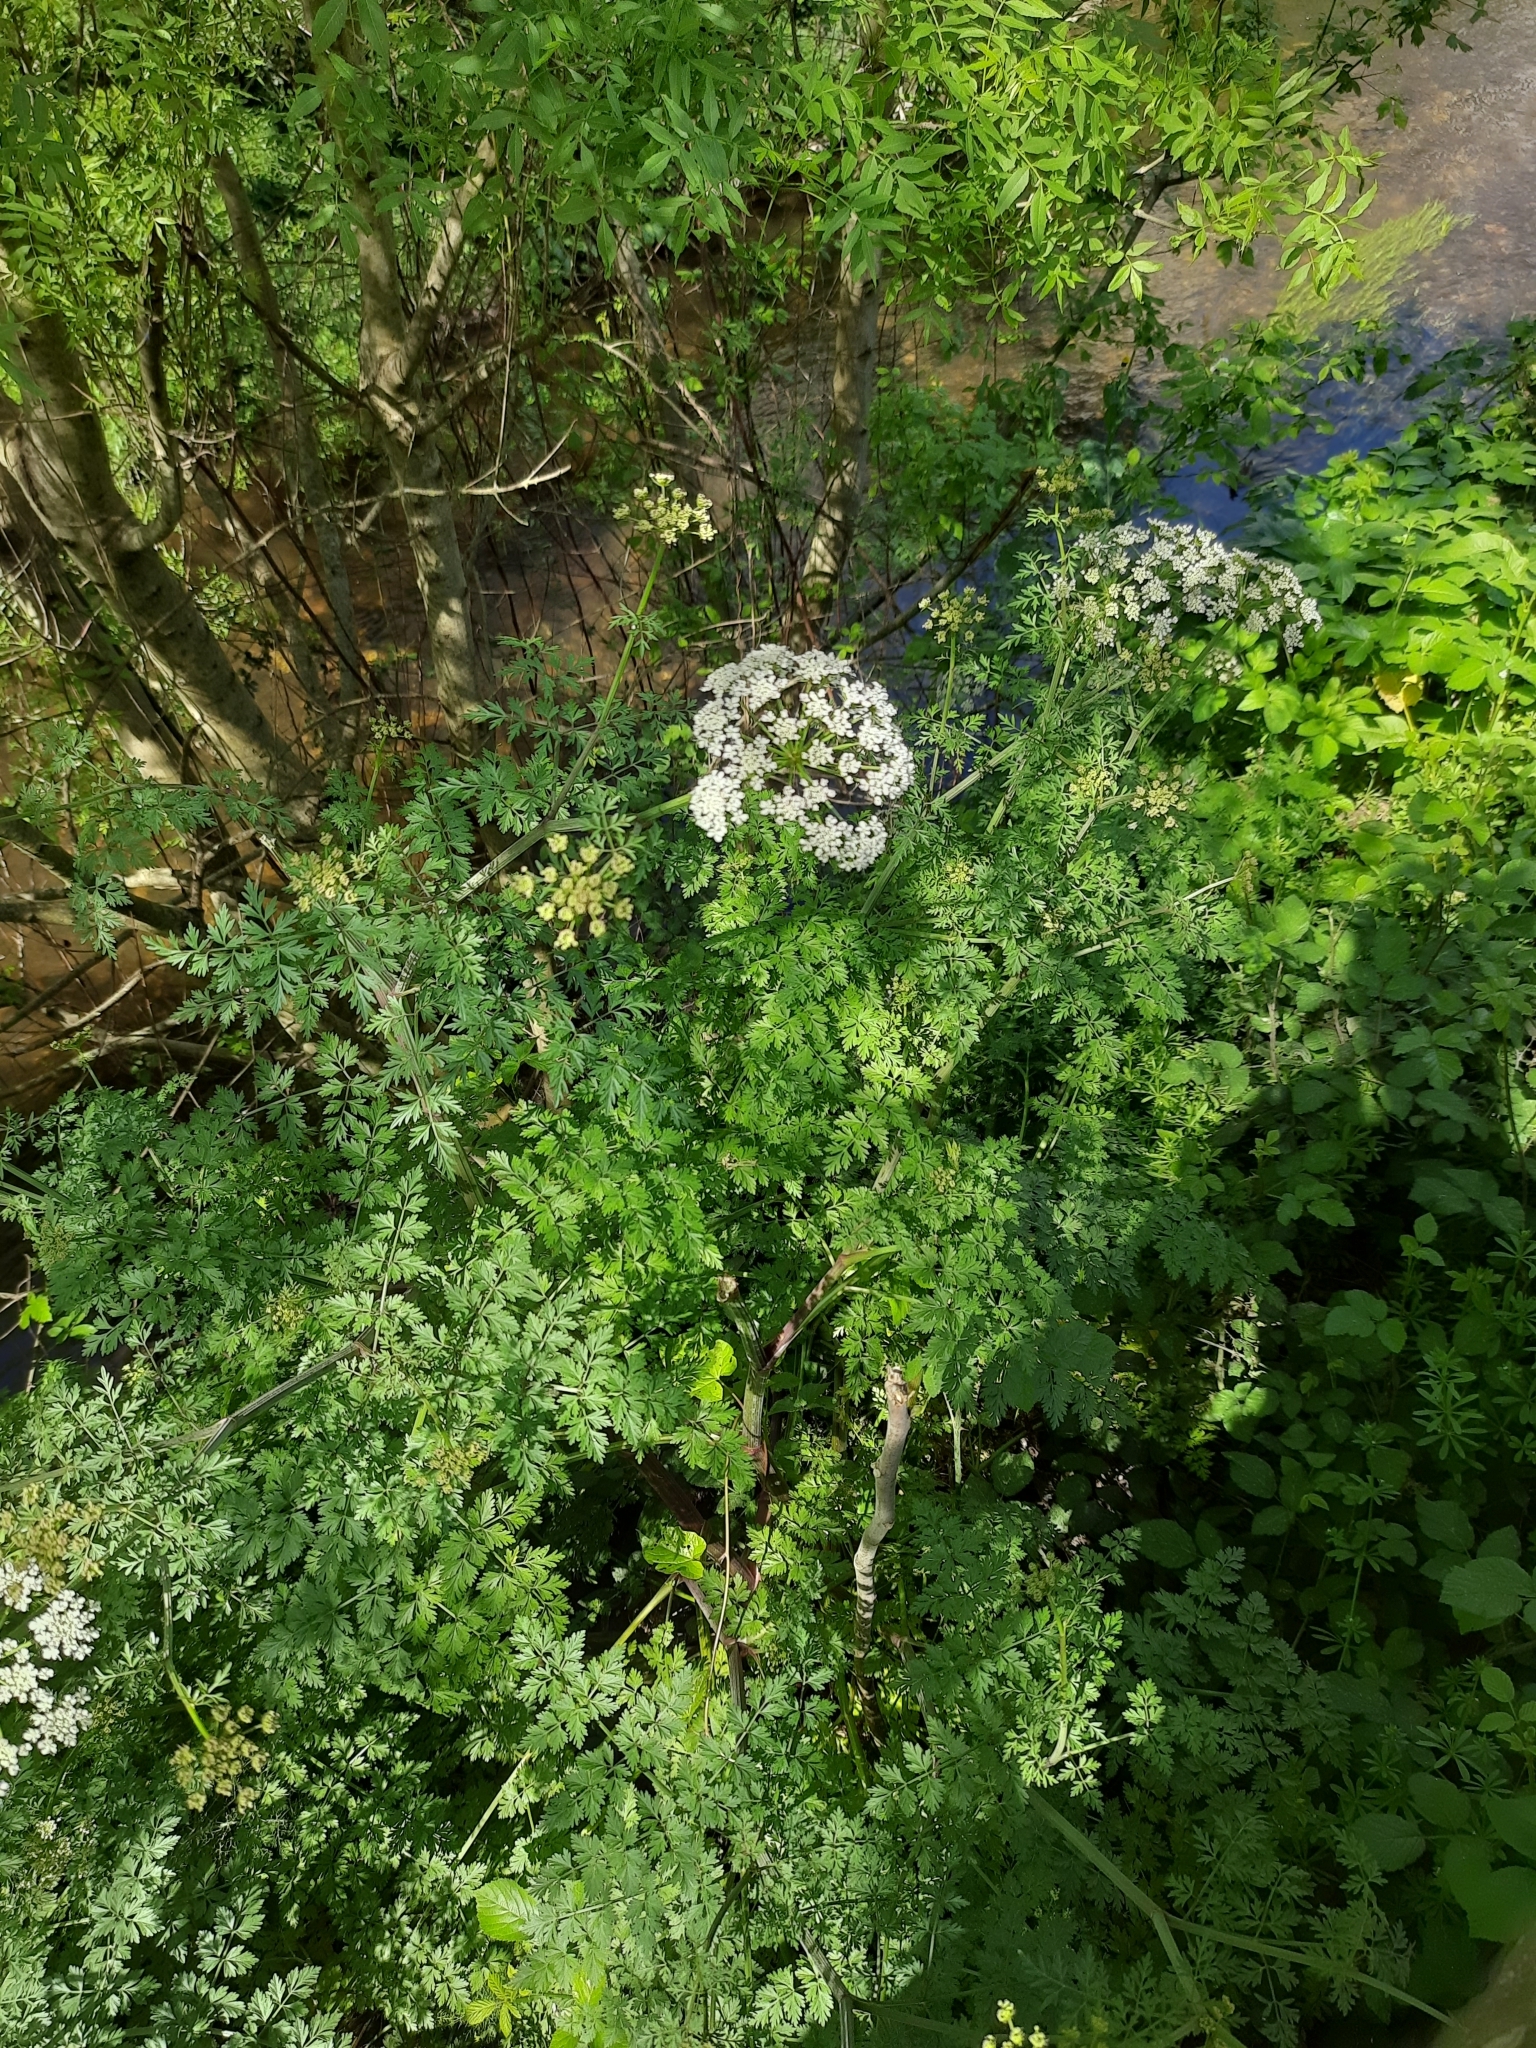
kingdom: Plantae
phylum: Tracheophyta
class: Magnoliopsida
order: Apiales
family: Apiaceae
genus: Oenanthe
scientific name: Oenanthe crocata
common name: Hemlock water-dropwort
